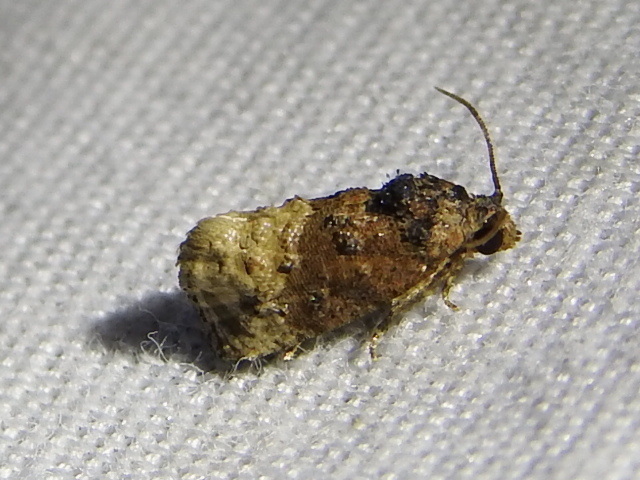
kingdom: Animalia
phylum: Arthropoda
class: Insecta
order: Lepidoptera
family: Tortricidae
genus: Ecdytolopha
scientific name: Ecdytolopha mana
